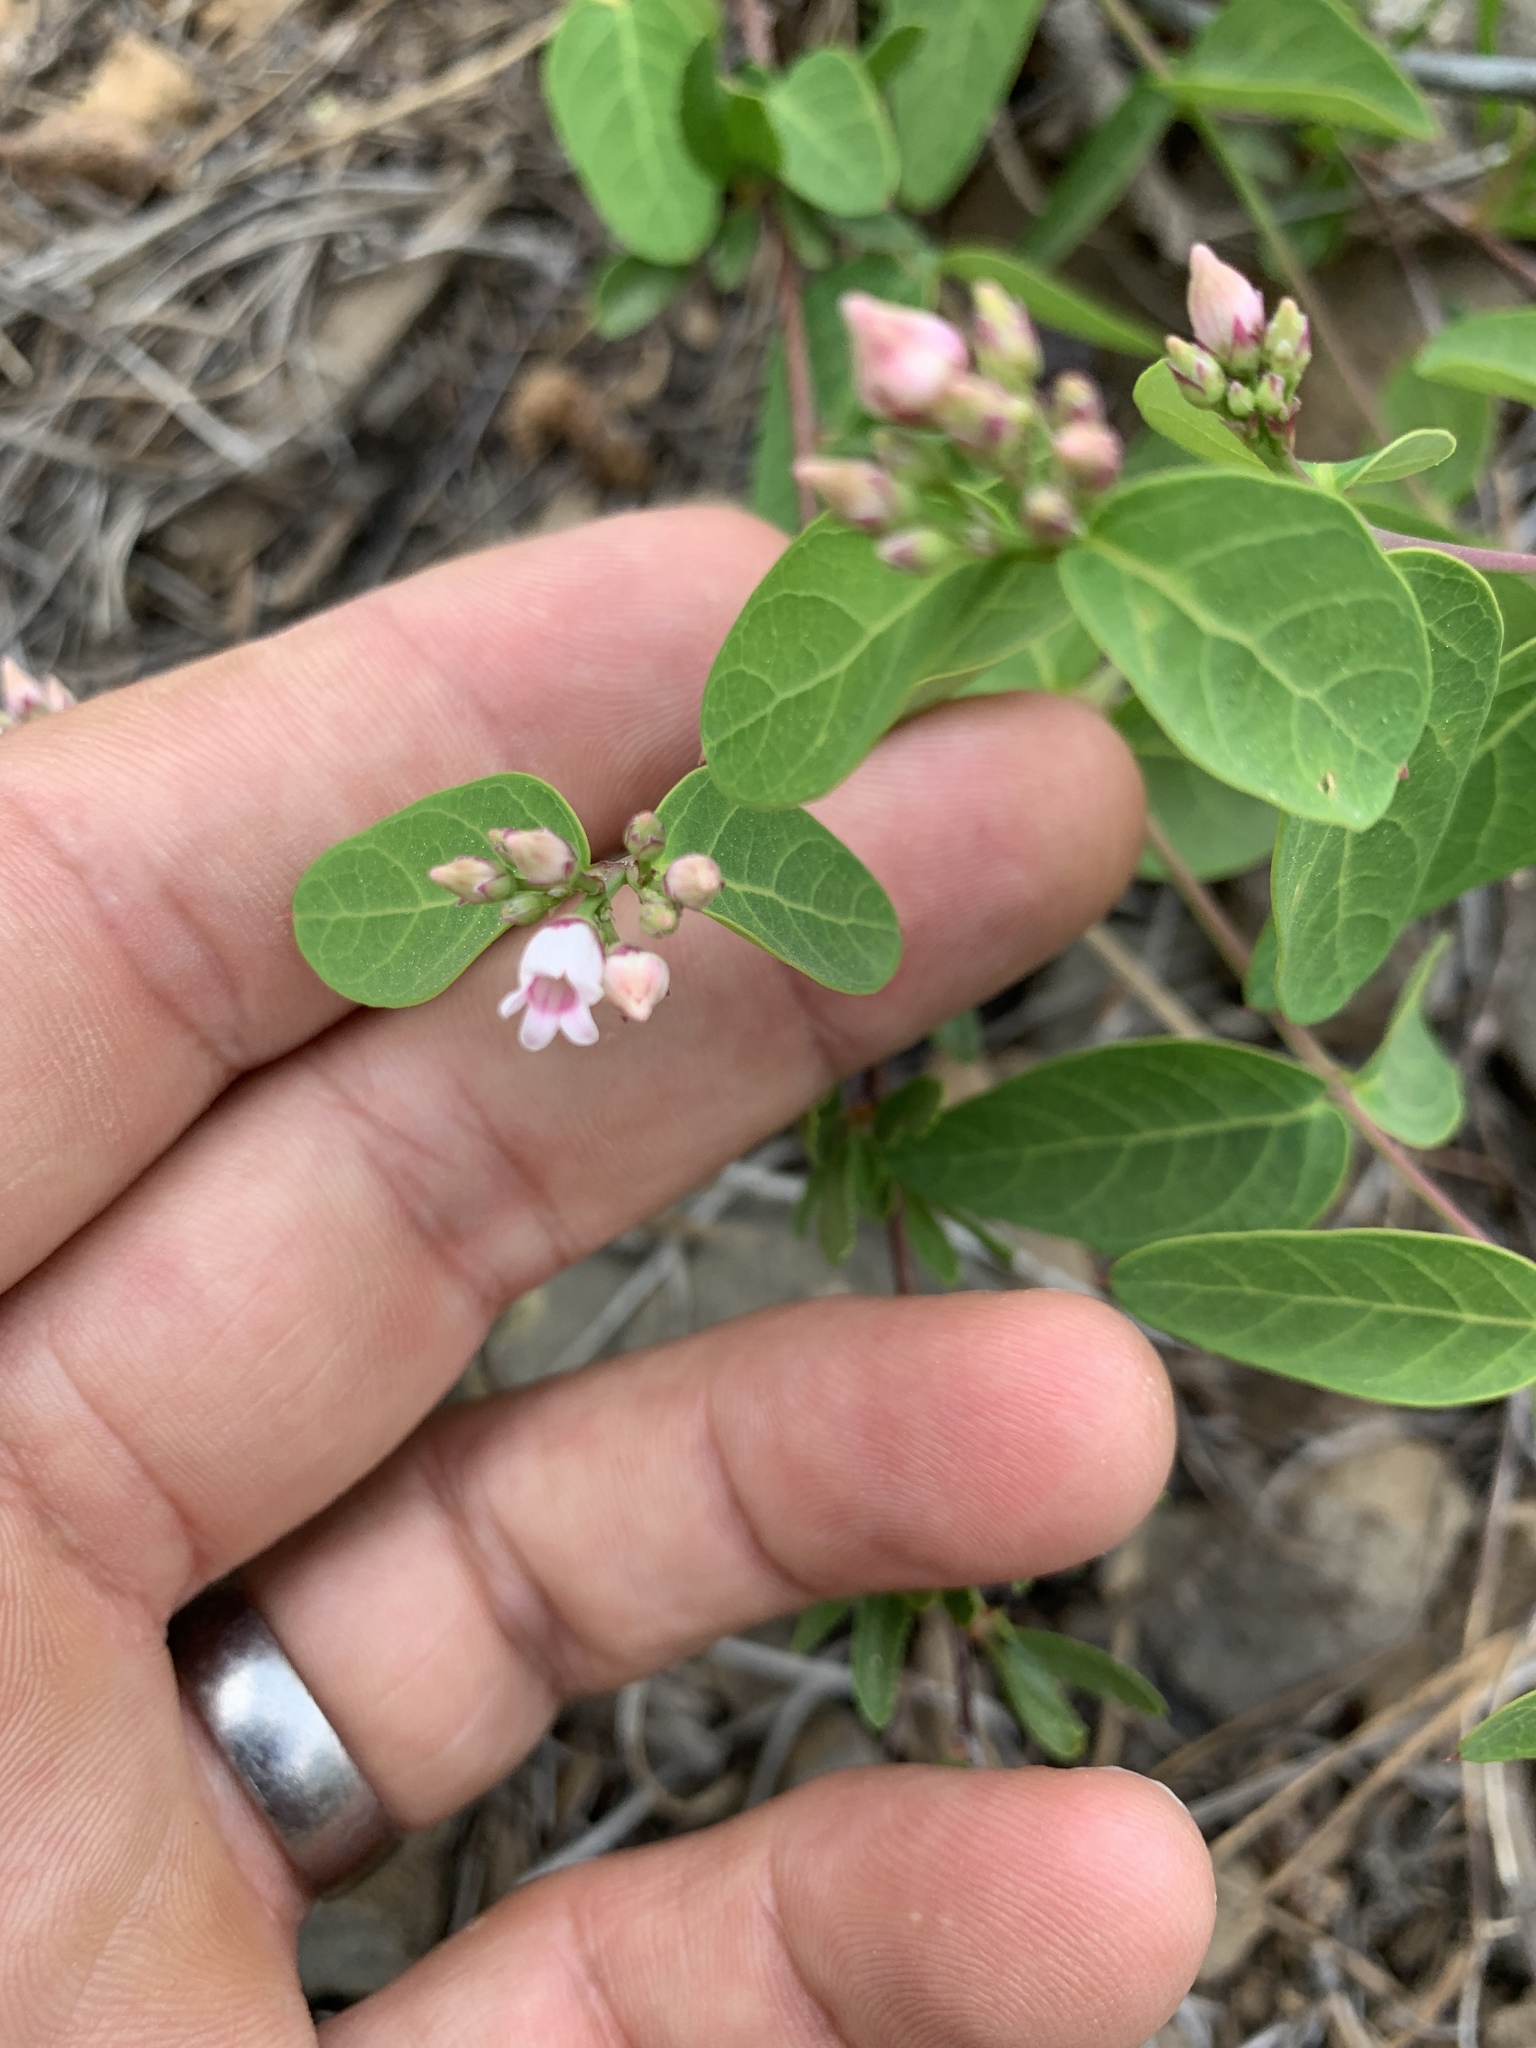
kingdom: Plantae
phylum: Tracheophyta
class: Magnoliopsida
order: Gentianales
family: Apocynaceae
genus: Apocynum
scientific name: Apocynum androsaemifolium
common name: Spreading dogbane
